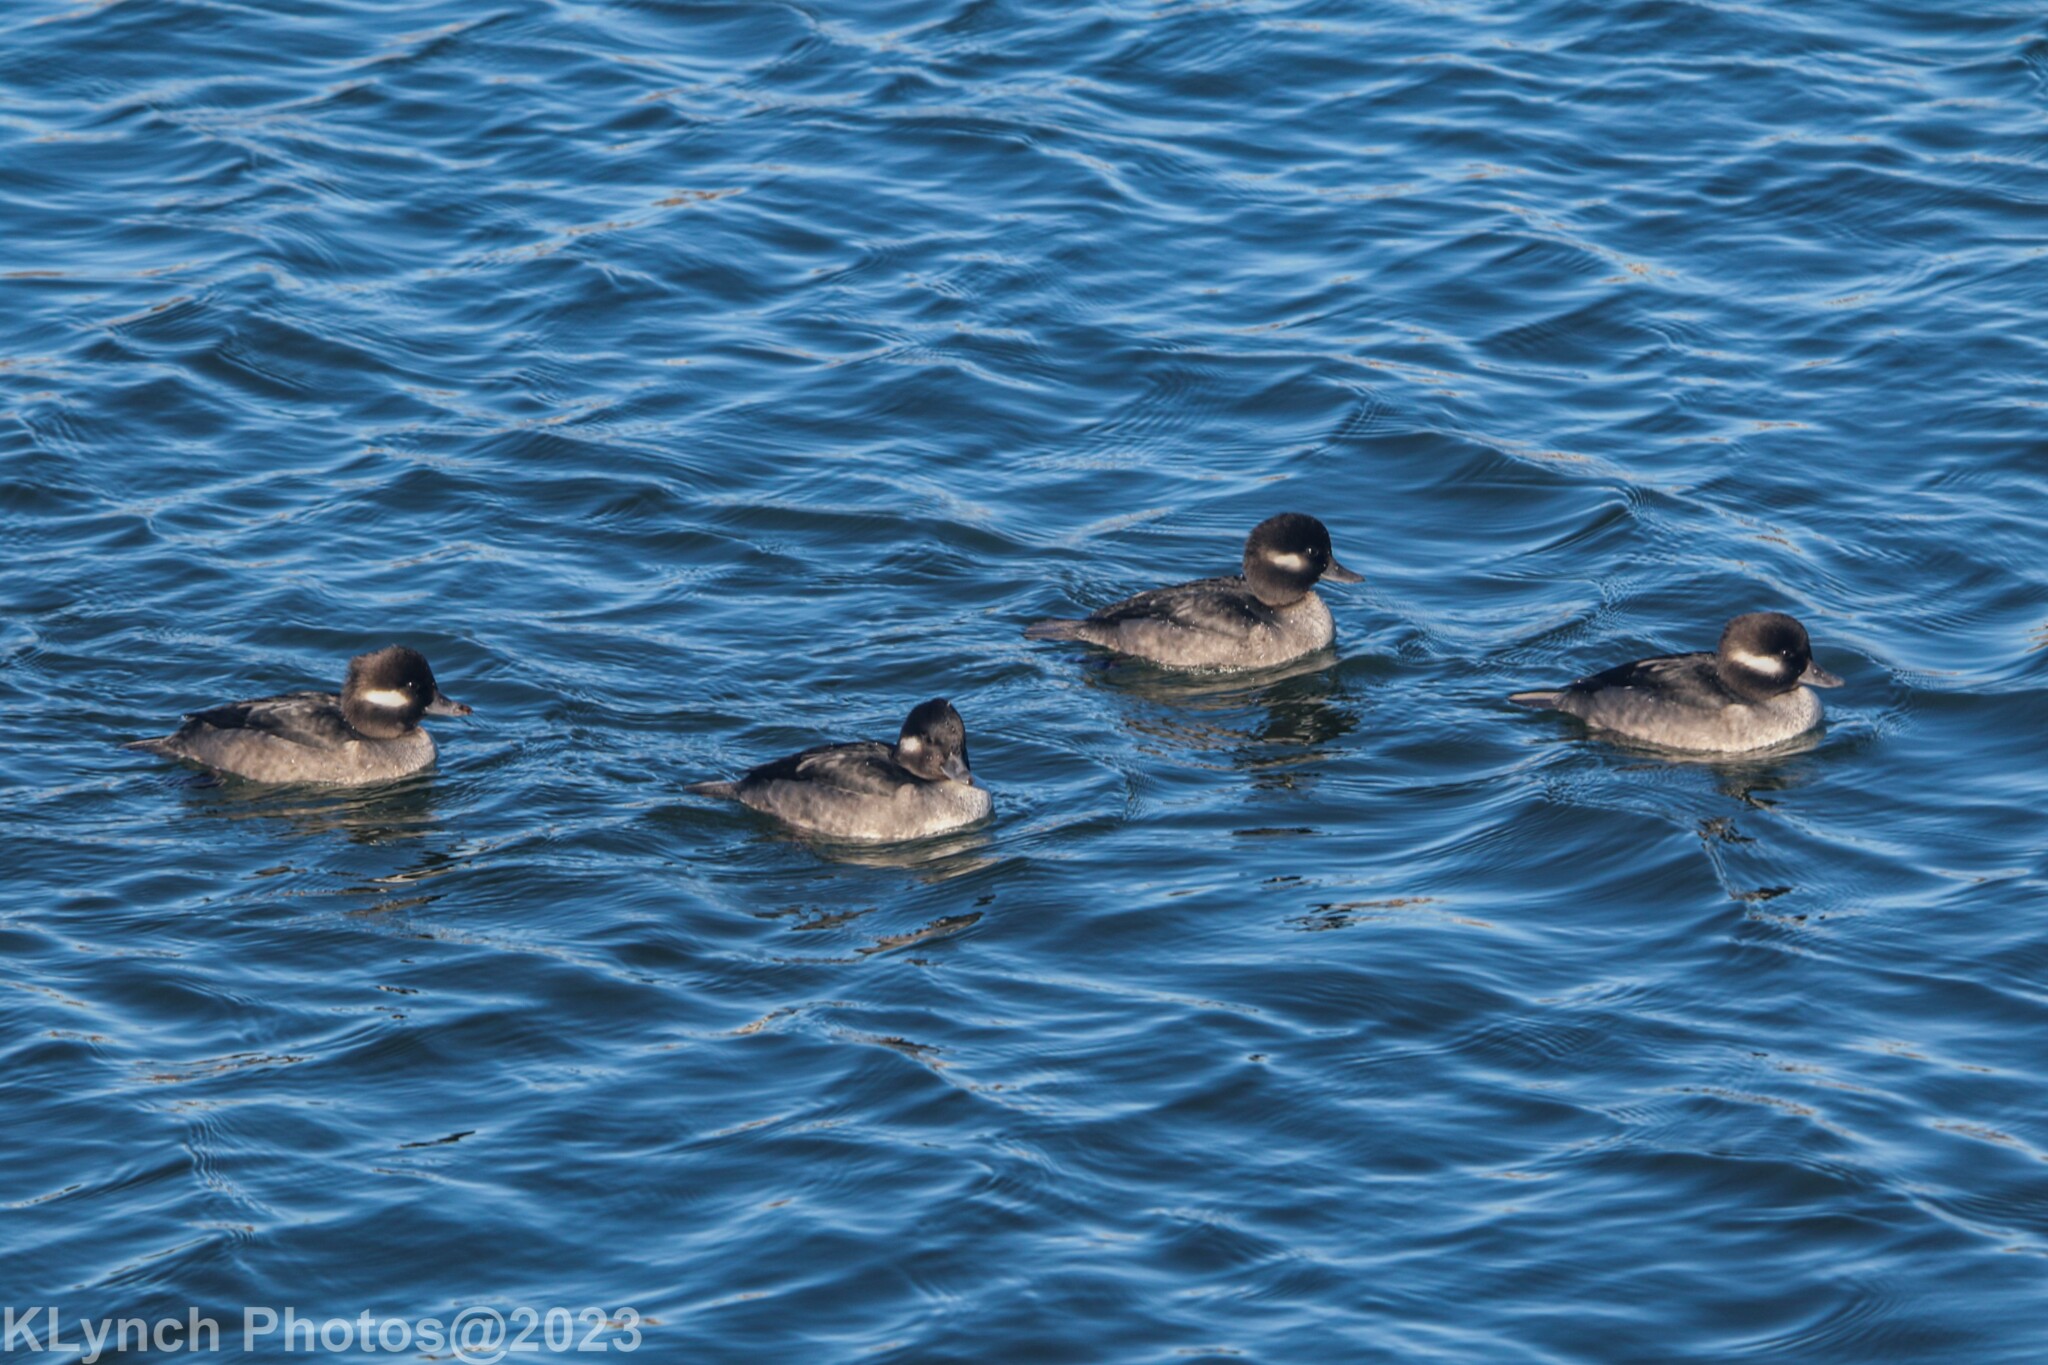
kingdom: Animalia
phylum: Chordata
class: Aves
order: Anseriformes
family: Anatidae
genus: Bucephala
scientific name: Bucephala albeola
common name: Bufflehead
